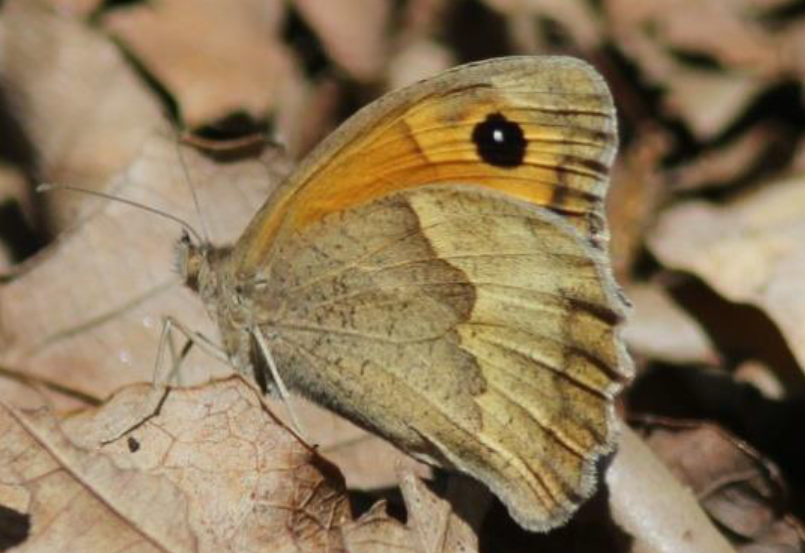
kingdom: Animalia
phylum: Arthropoda
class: Insecta
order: Lepidoptera
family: Nymphalidae
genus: Maniola
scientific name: Maniola jurtina
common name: Meadow brown
